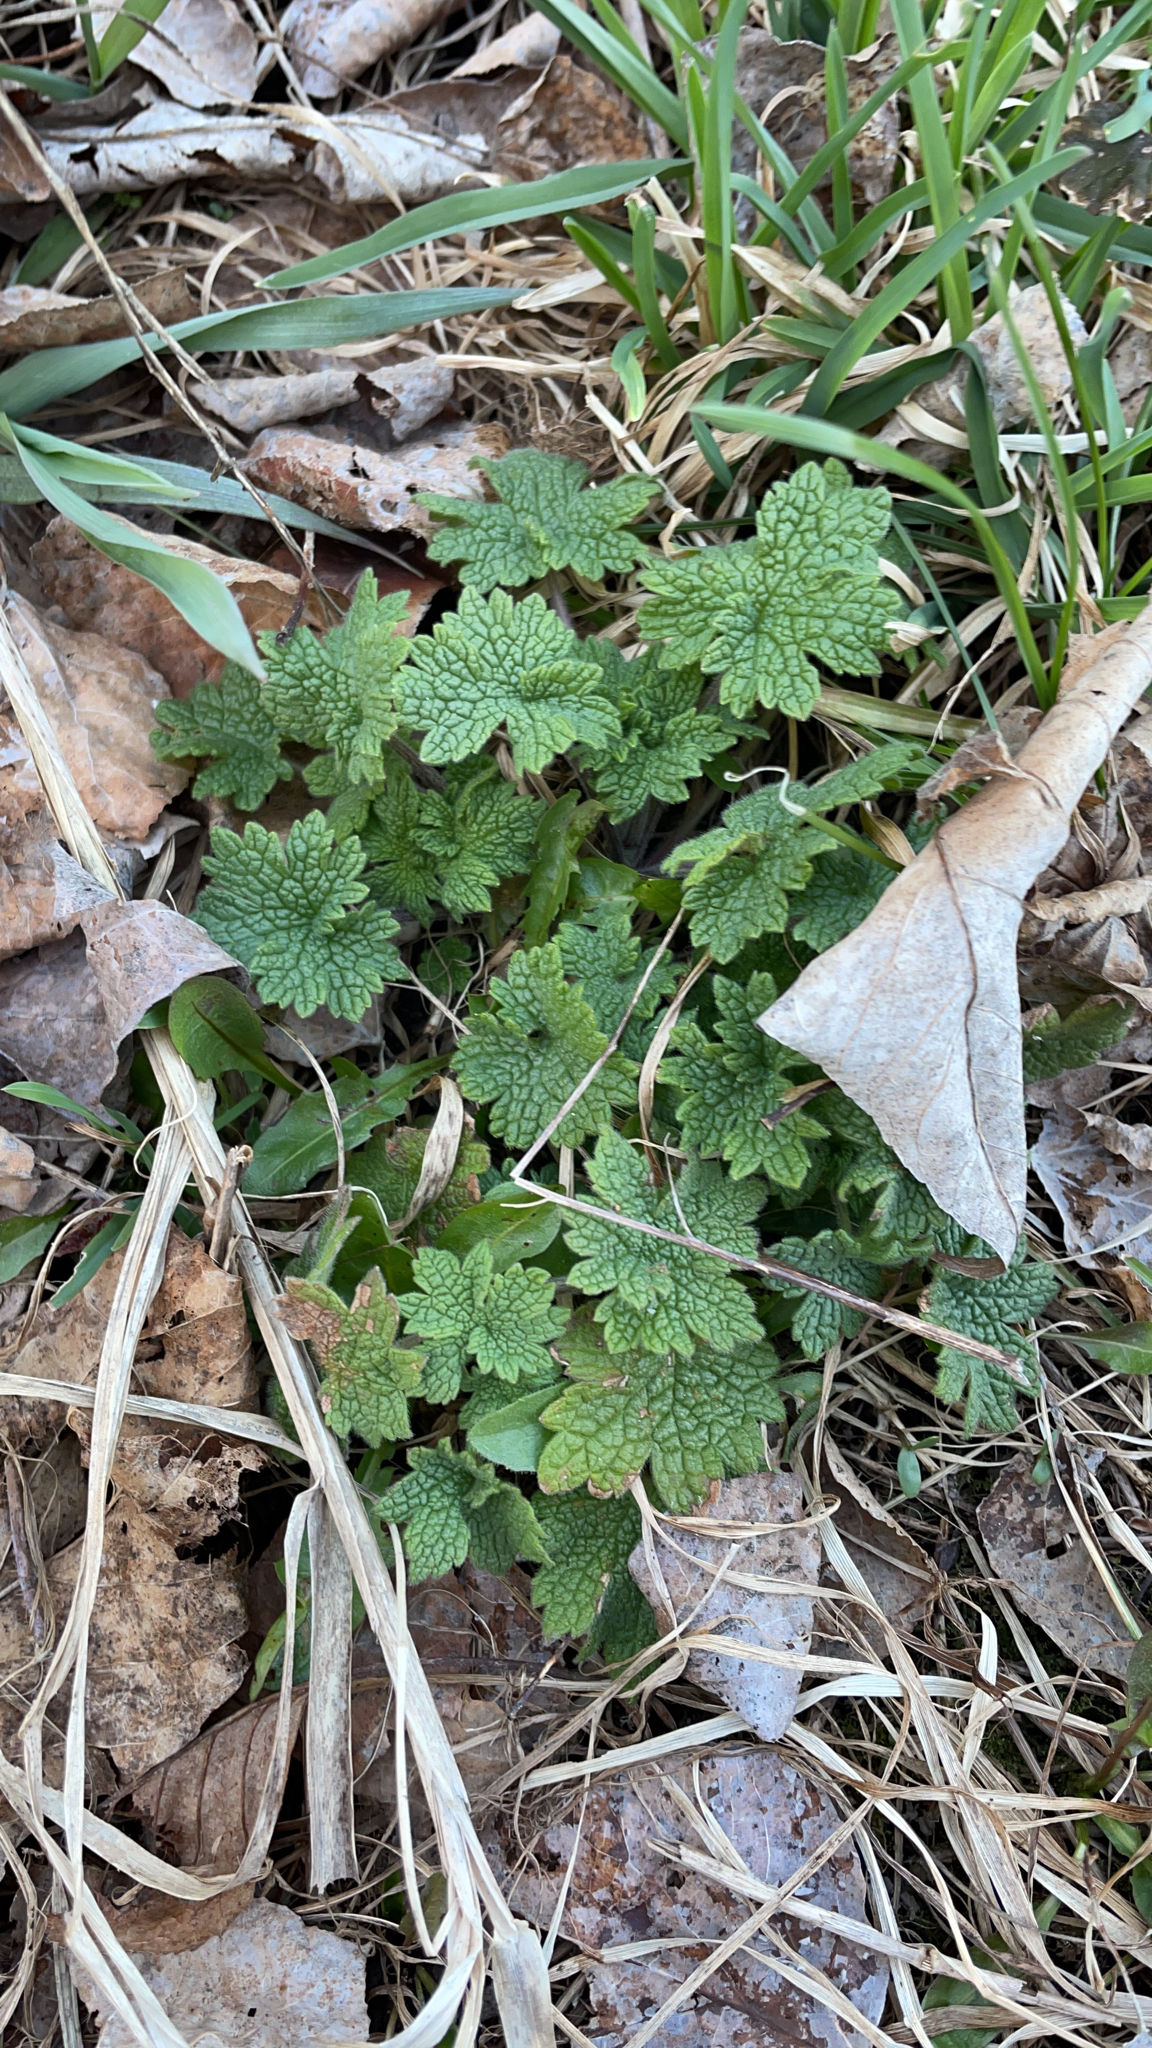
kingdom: Plantae
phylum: Tracheophyta
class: Magnoliopsida
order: Lamiales
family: Lamiaceae
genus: Leonurus
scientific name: Leonurus cardiaca
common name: Motherwort
